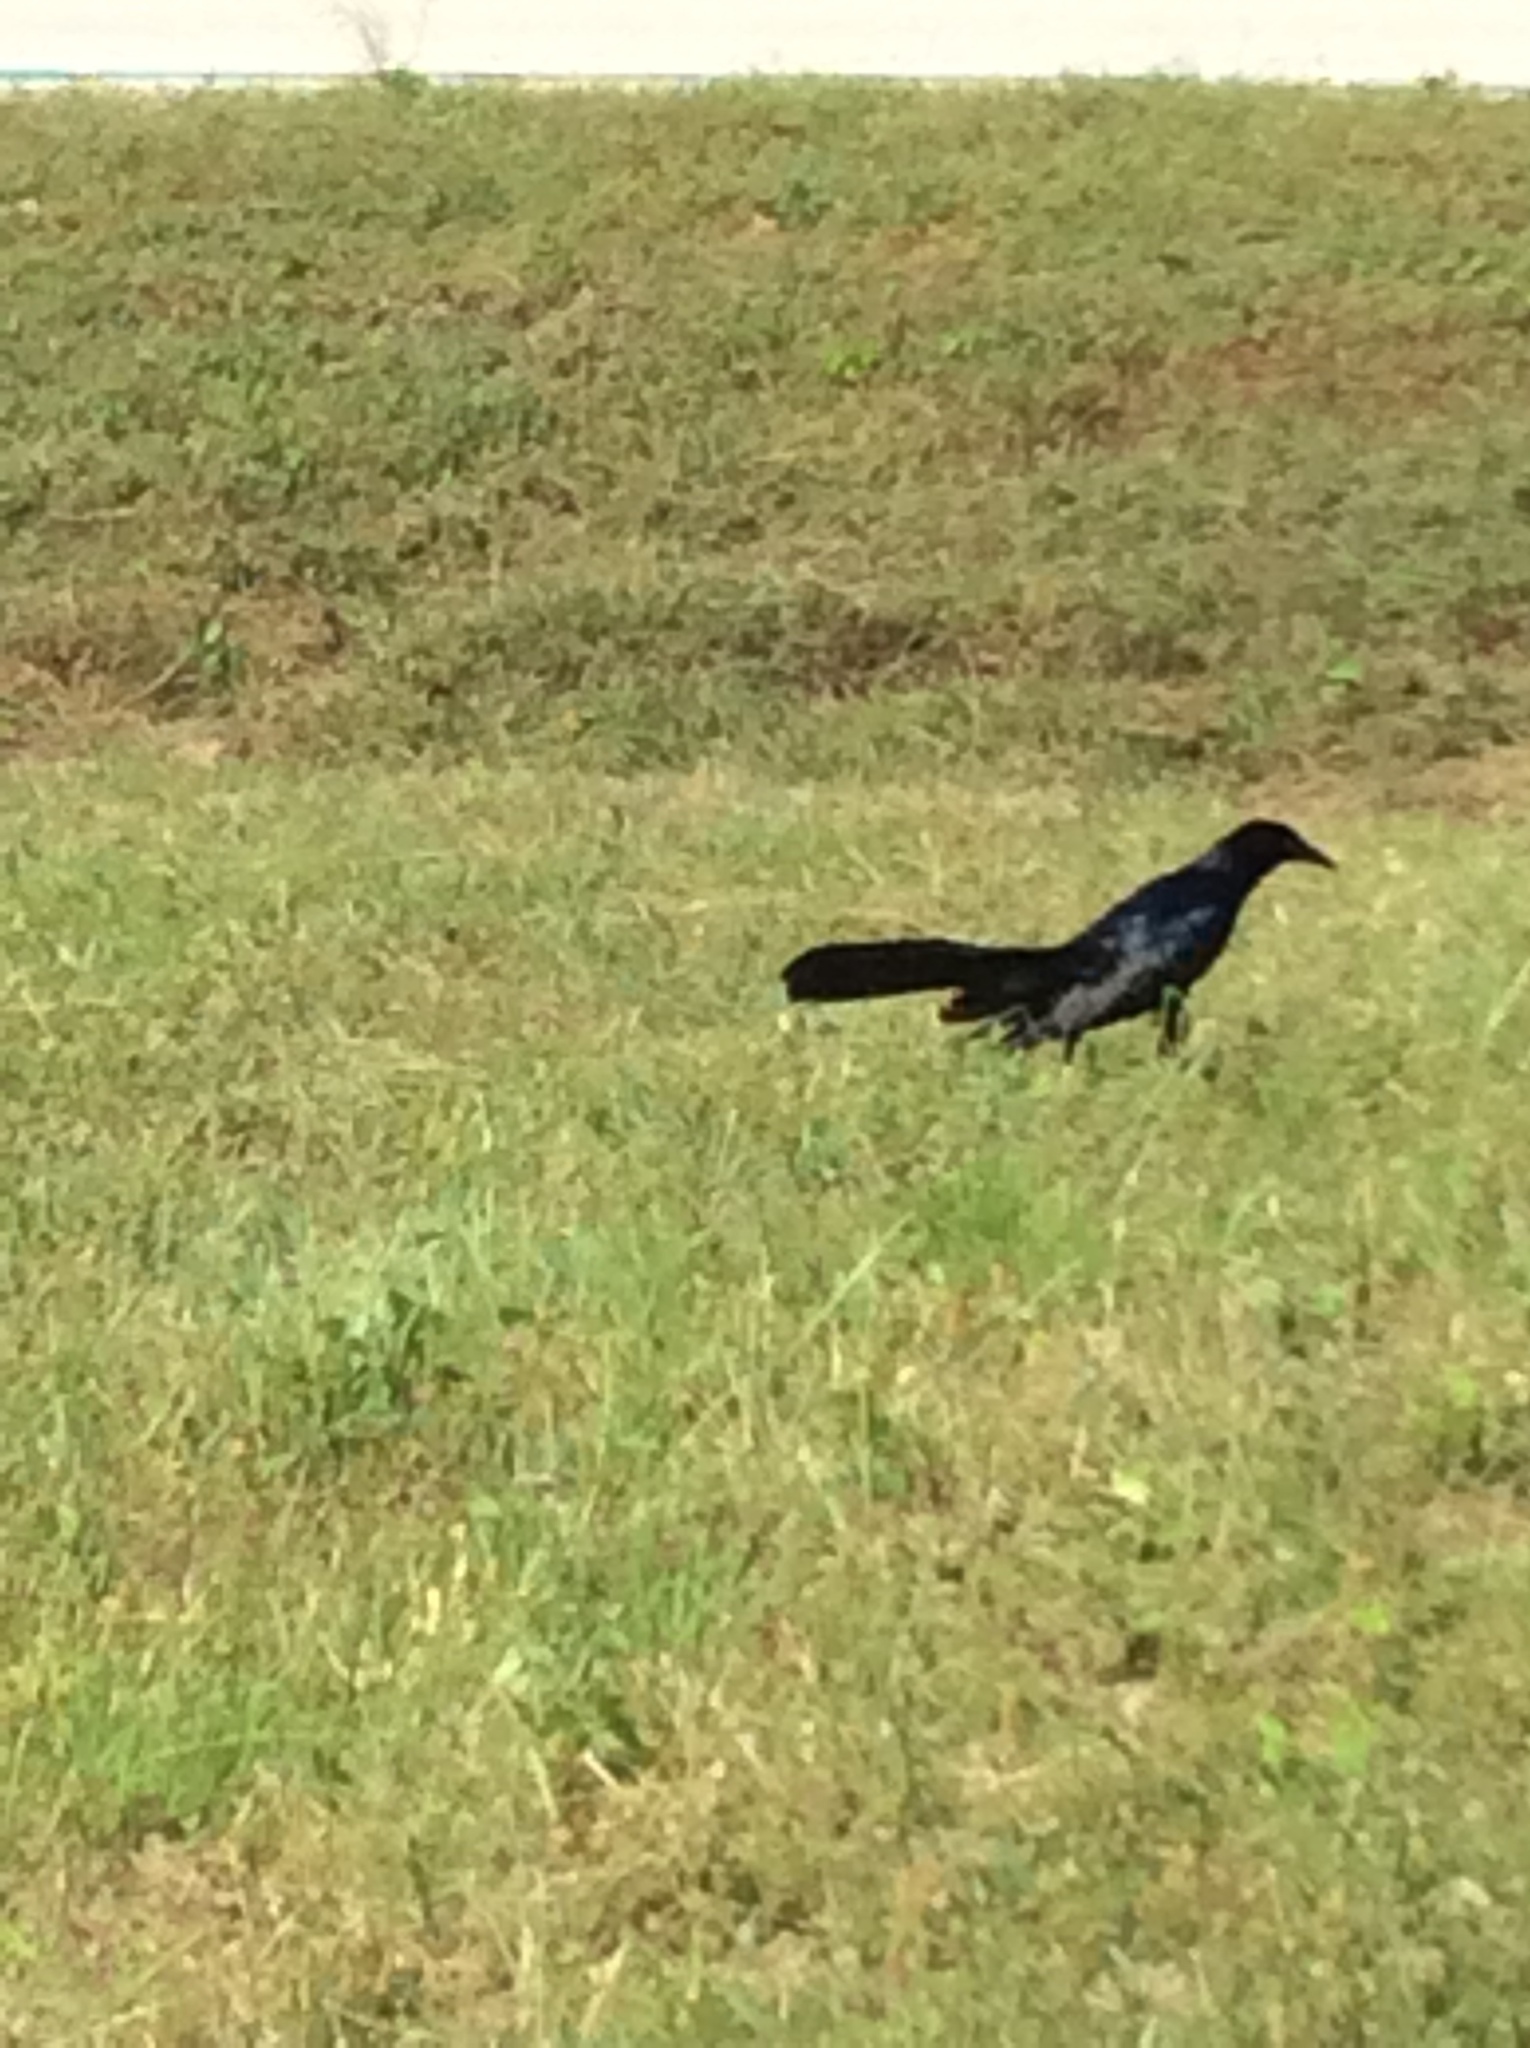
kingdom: Animalia
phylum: Chordata
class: Aves
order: Passeriformes
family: Icteridae
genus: Quiscalus
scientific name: Quiscalus mexicanus
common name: Great-tailed grackle
